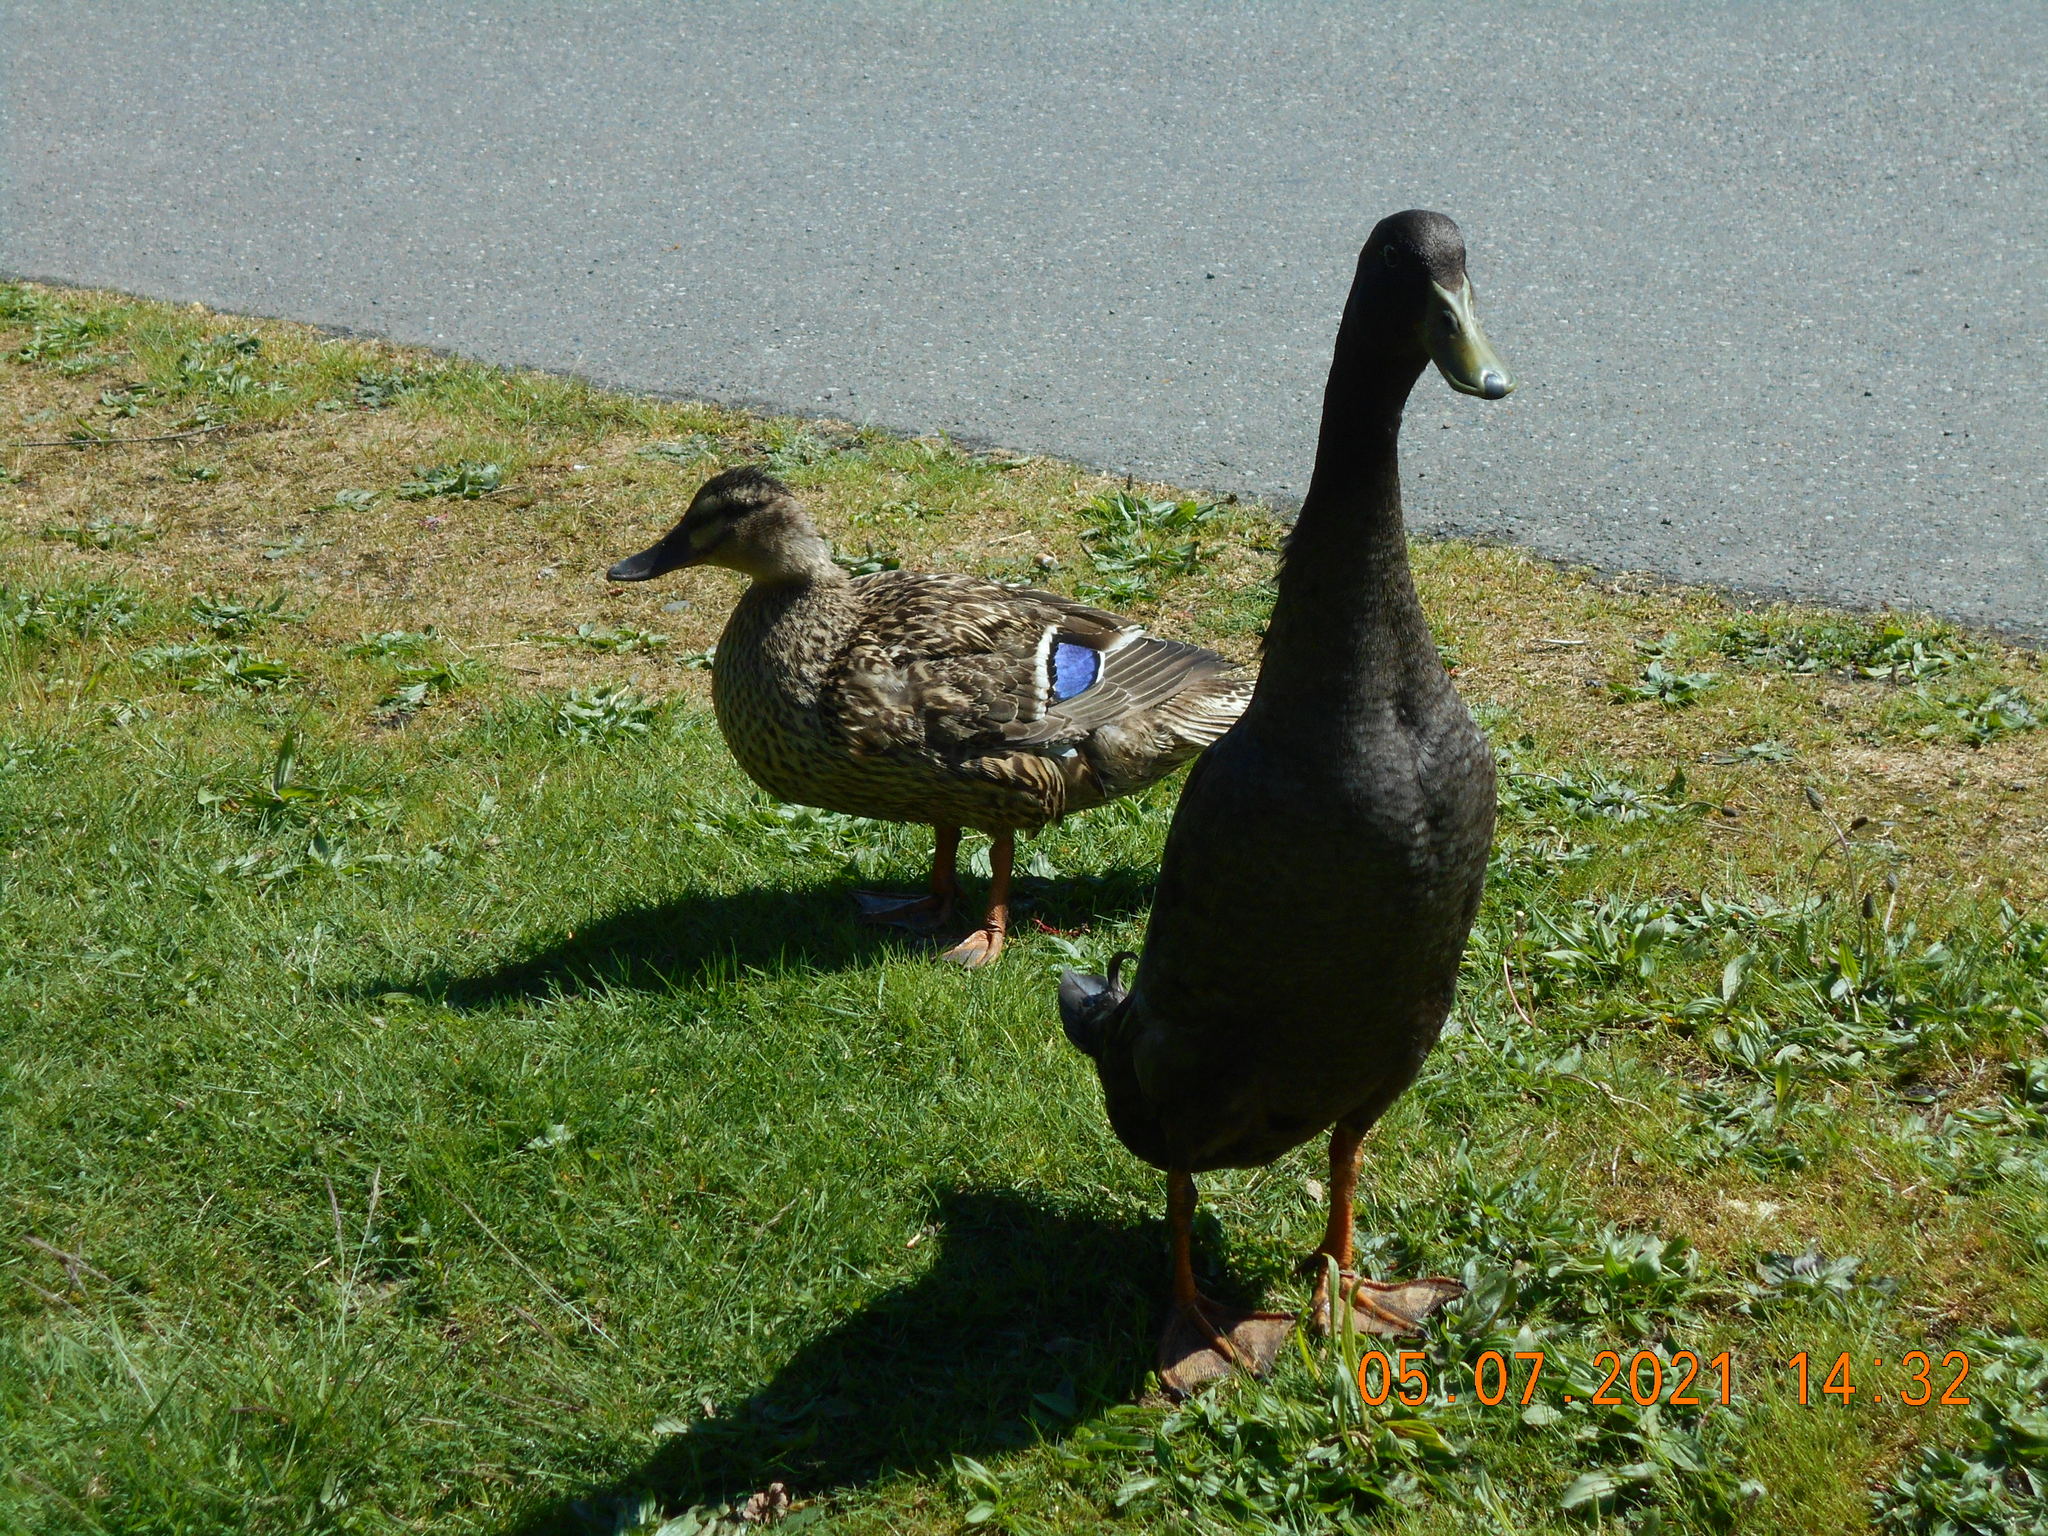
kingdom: Animalia
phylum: Chordata
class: Aves
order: Anseriformes
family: Anatidae
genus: Anas
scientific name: Anas platyrhynchos
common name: Mallard
